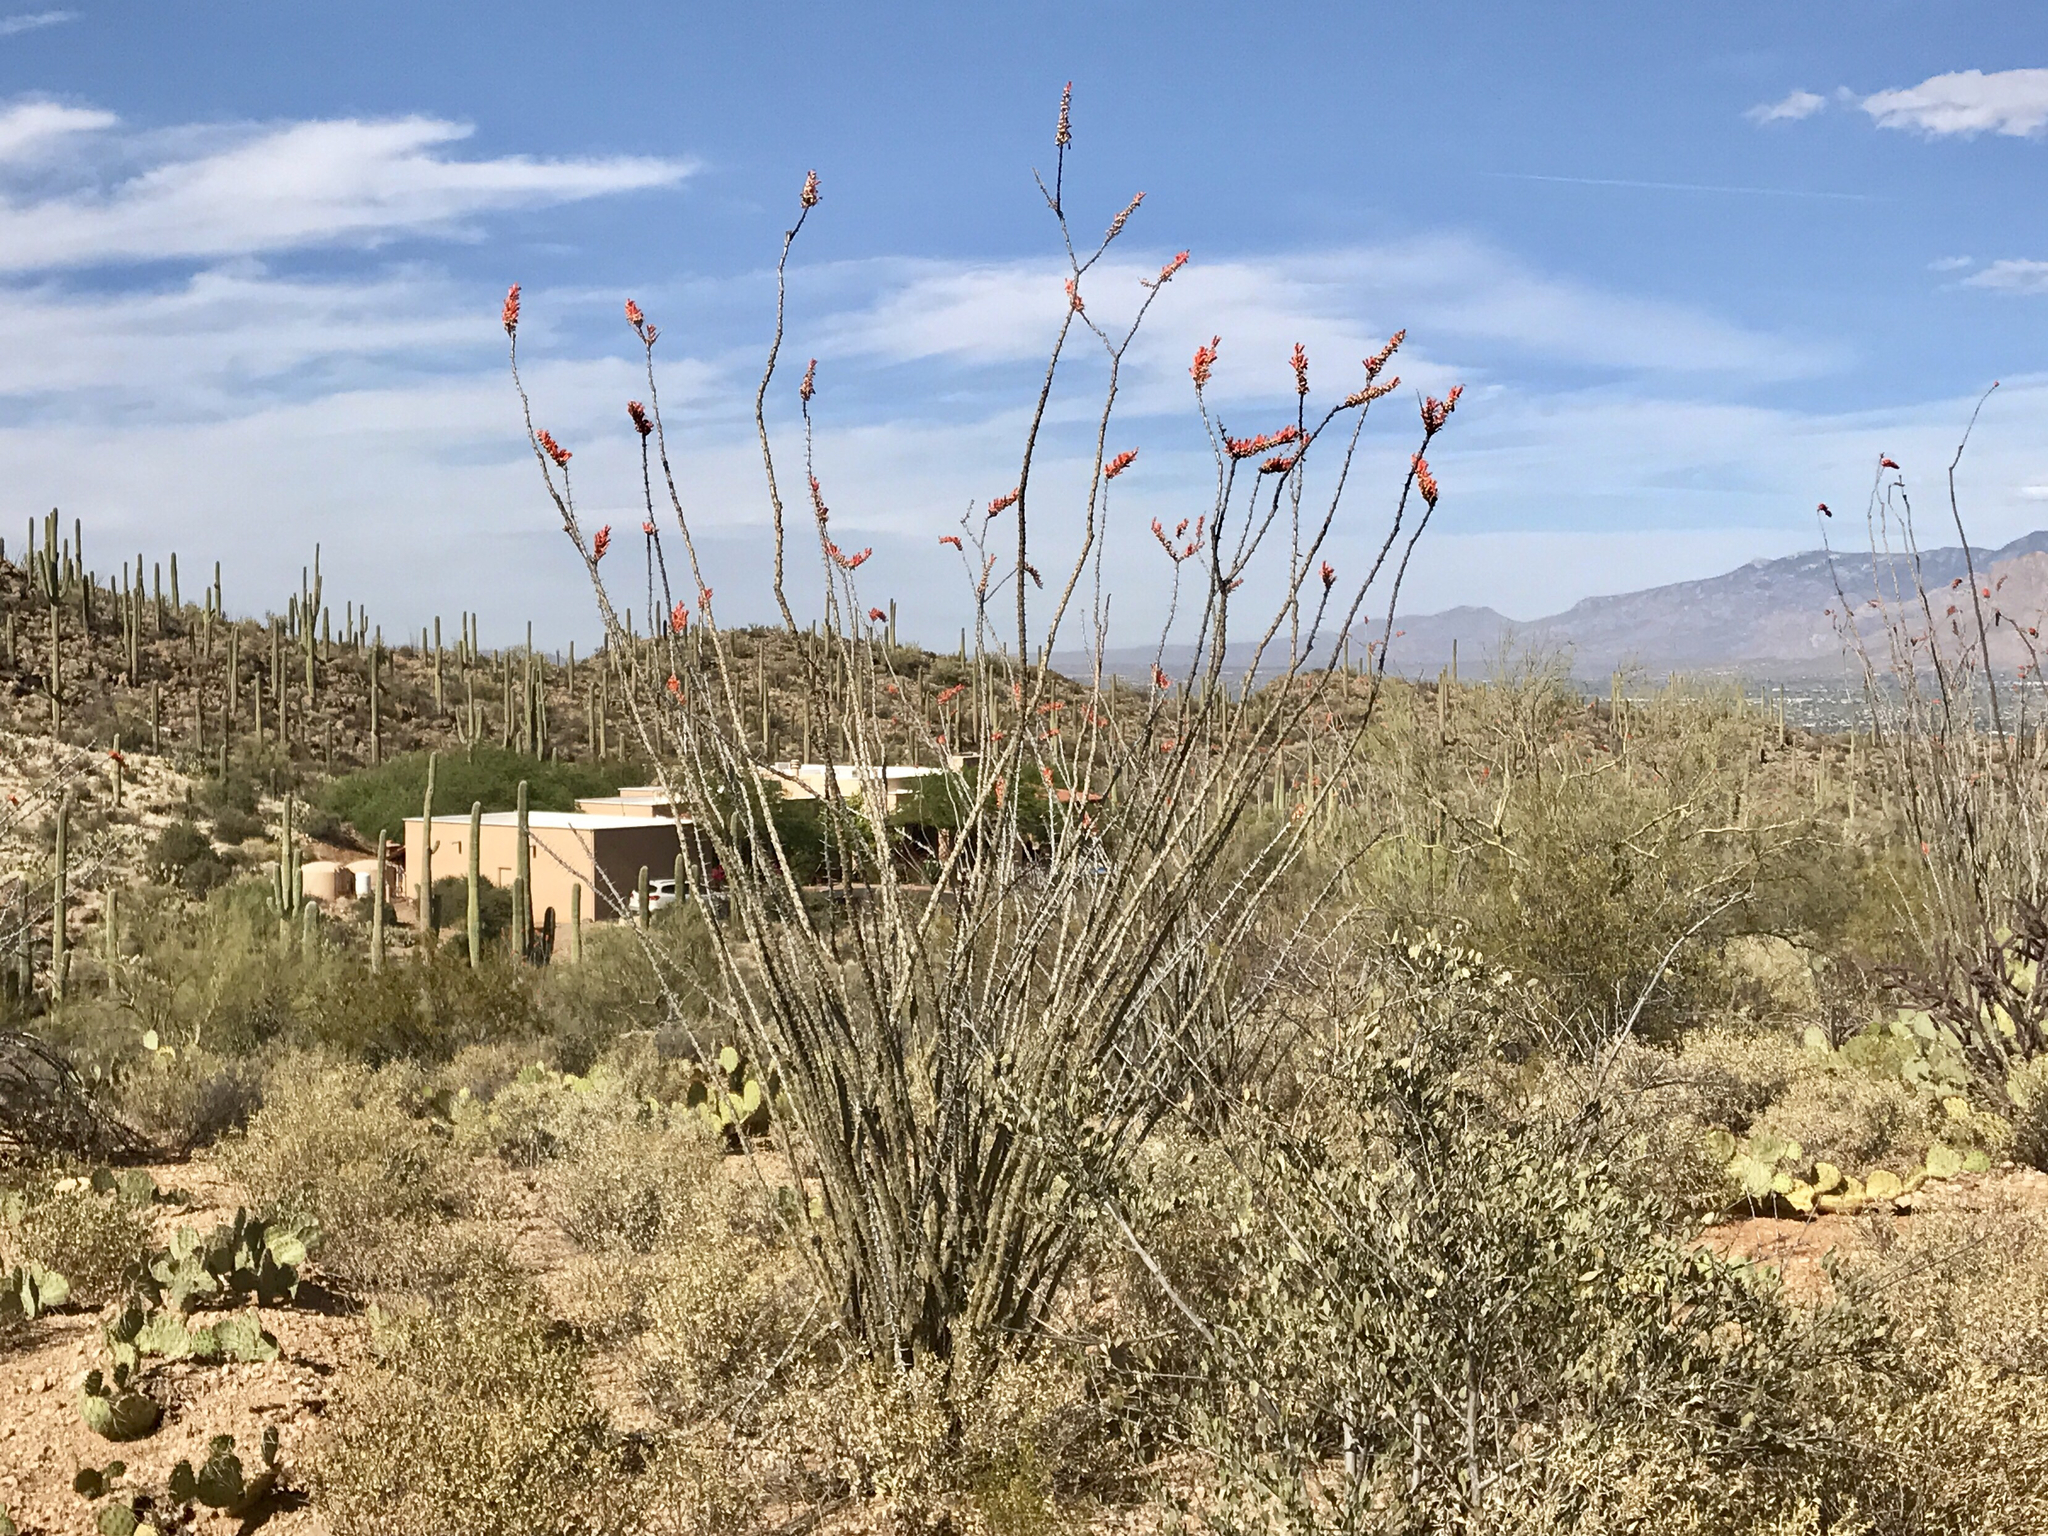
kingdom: Plantae
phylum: Tracheophyta
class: Magnoliopsida
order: Ericales
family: Fouquieriaceae
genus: Fouquieria
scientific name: Fouquieria splendens
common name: Vine-cactus
